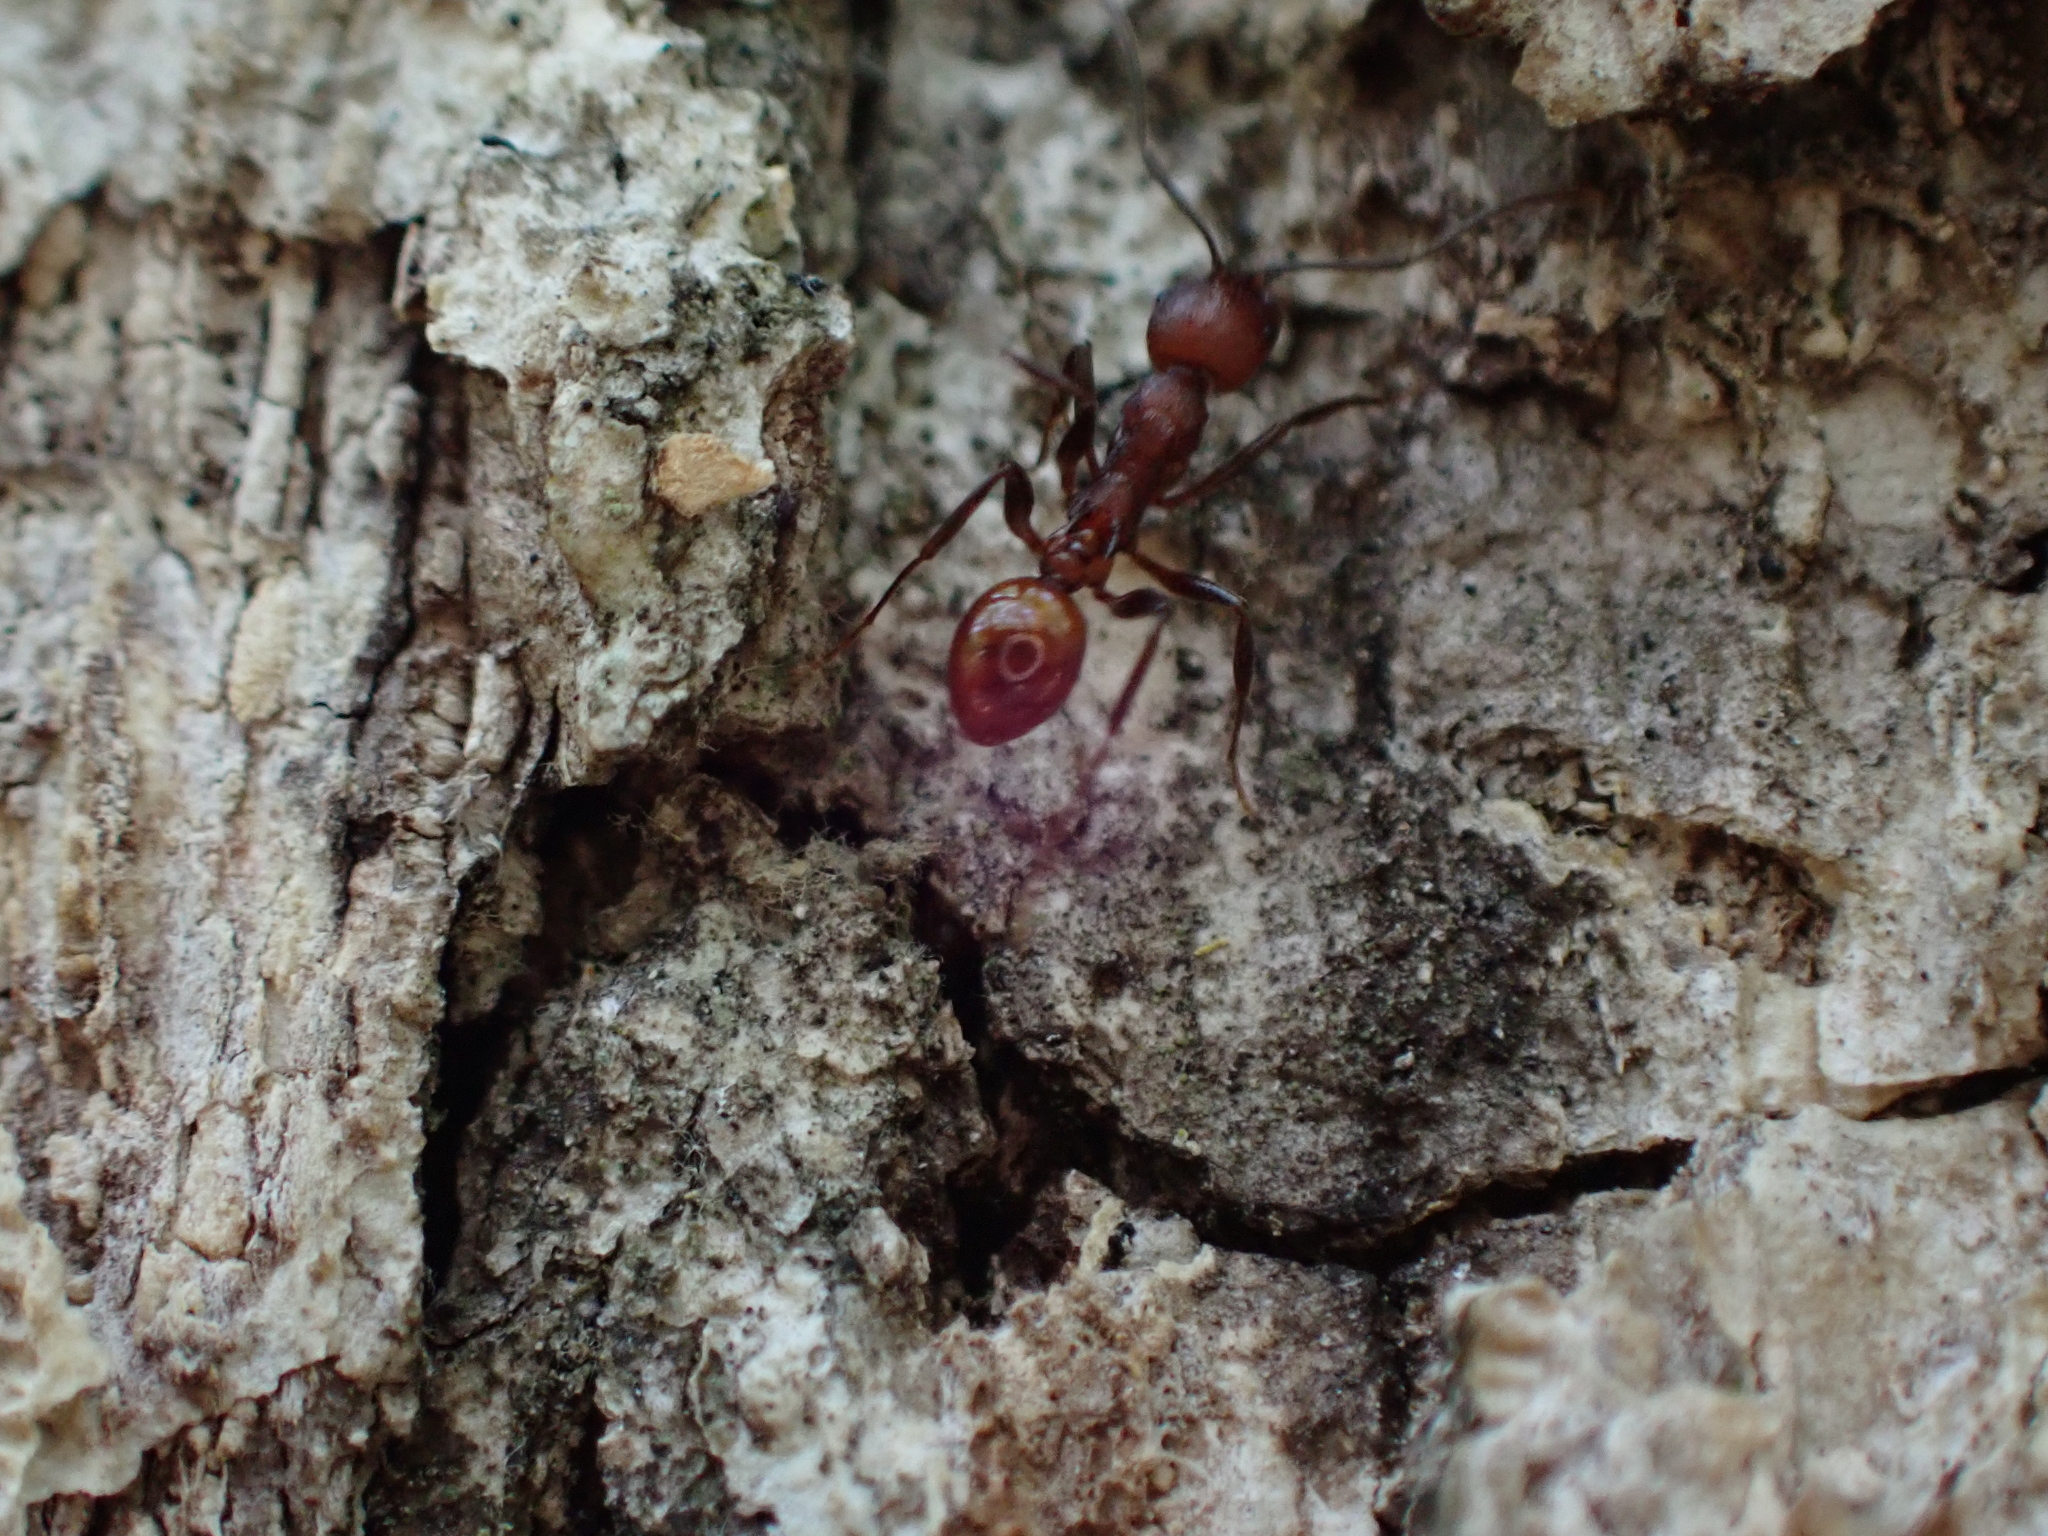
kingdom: Animalia
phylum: Arthropoda
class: Insecta
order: Hymenoptera
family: Formicidae
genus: Aphaenogaster
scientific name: Aphaenogaster tennesseensis
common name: Tennessee thread-waisted ant
